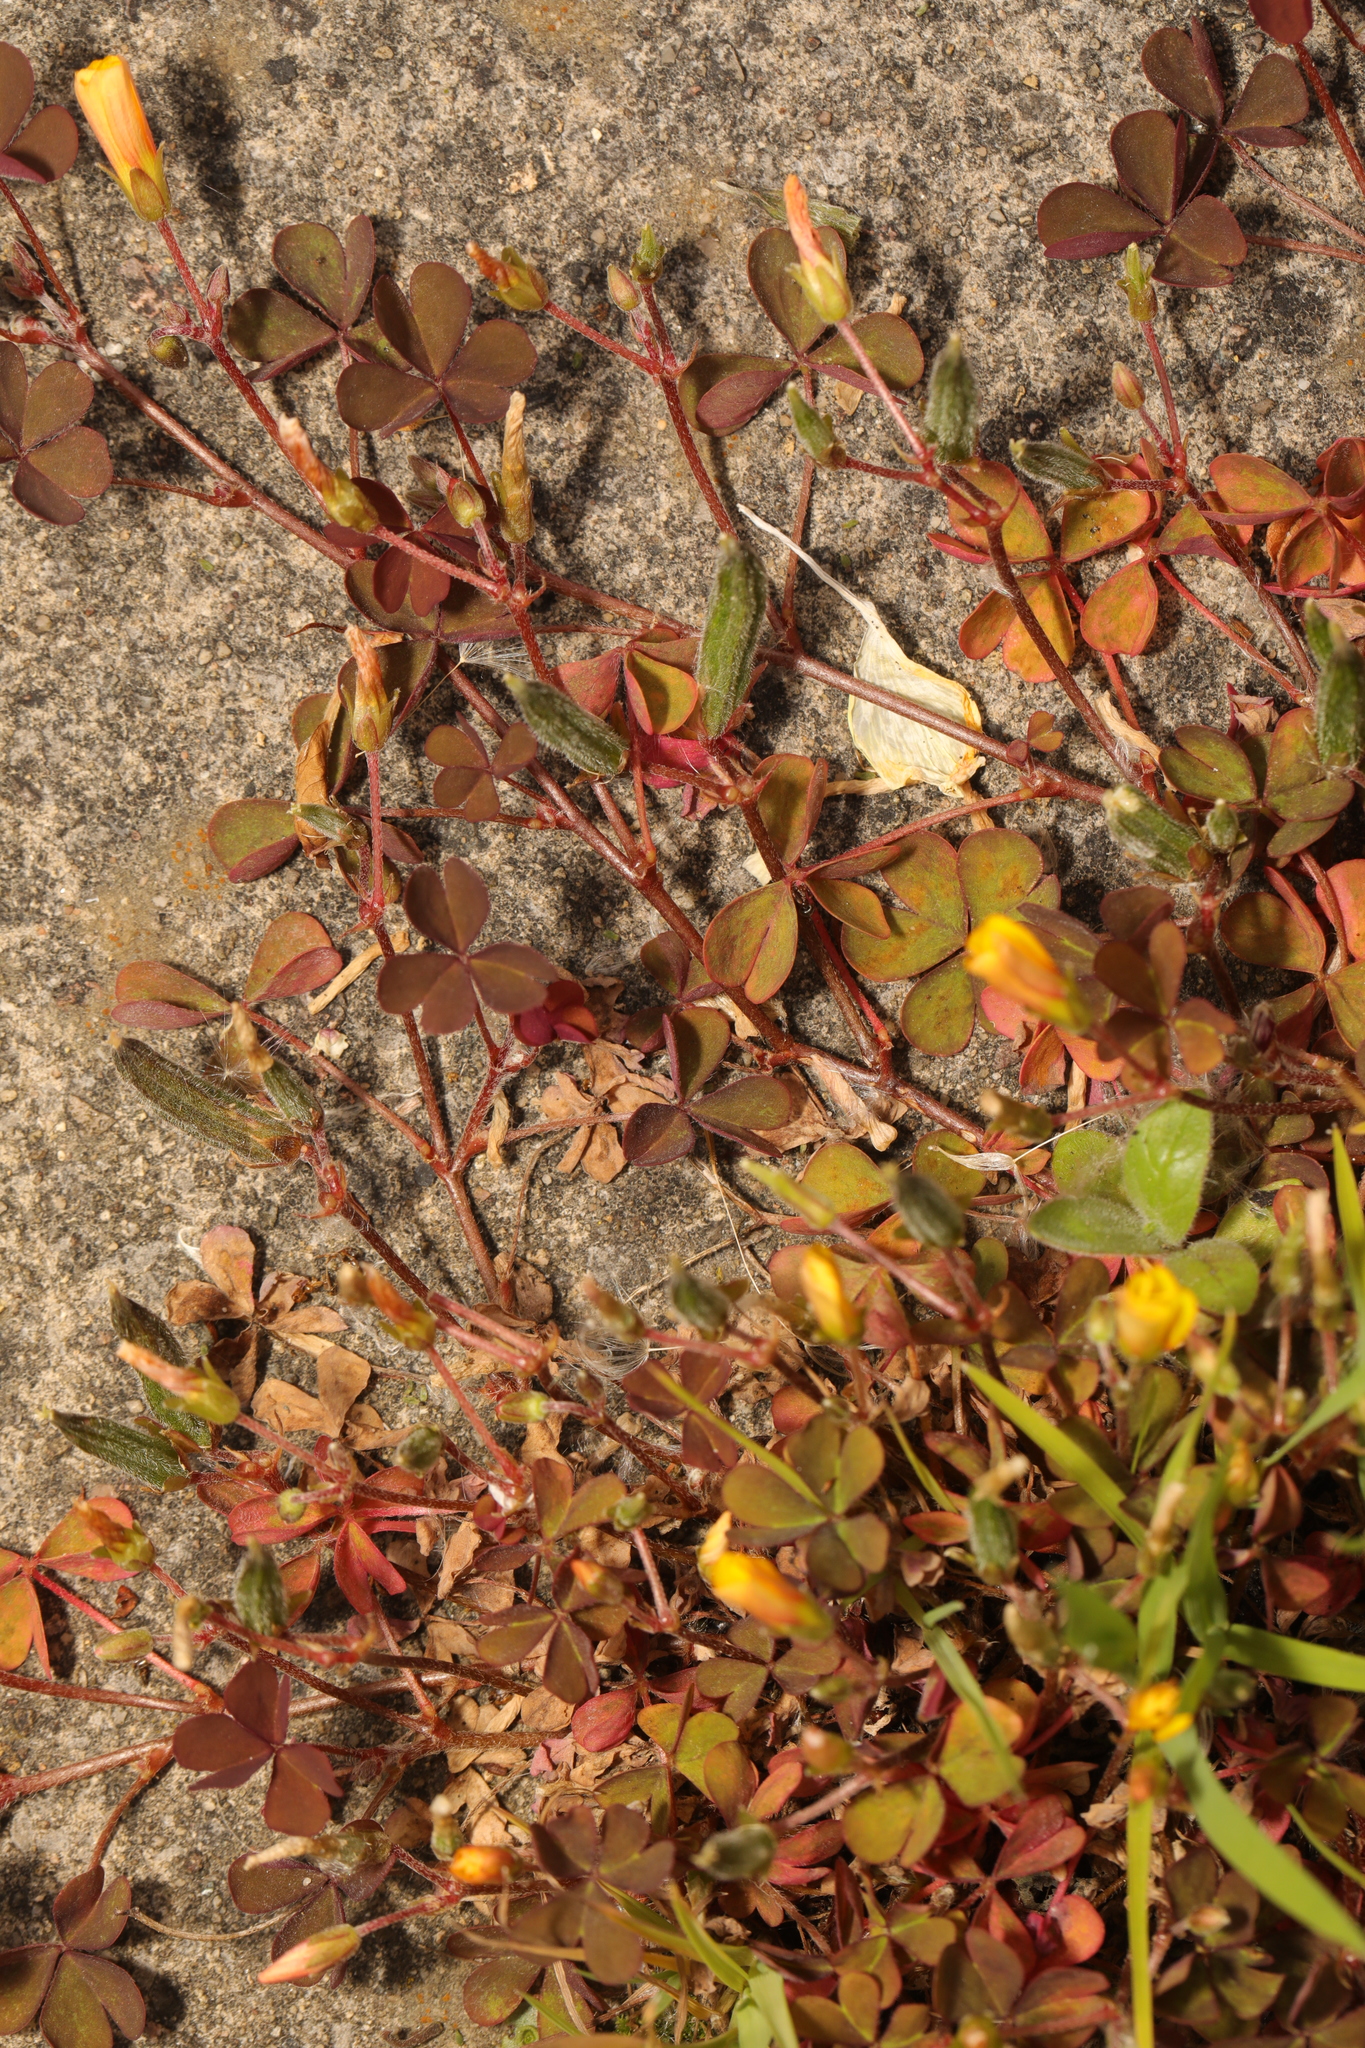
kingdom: Plantae
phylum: Tracheophyta
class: Magnoliopsida
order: Oxalidales
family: Oxalidaceae
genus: Oxalis
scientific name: Oxalis corniculata
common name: Procumbent yellow-sorrel
